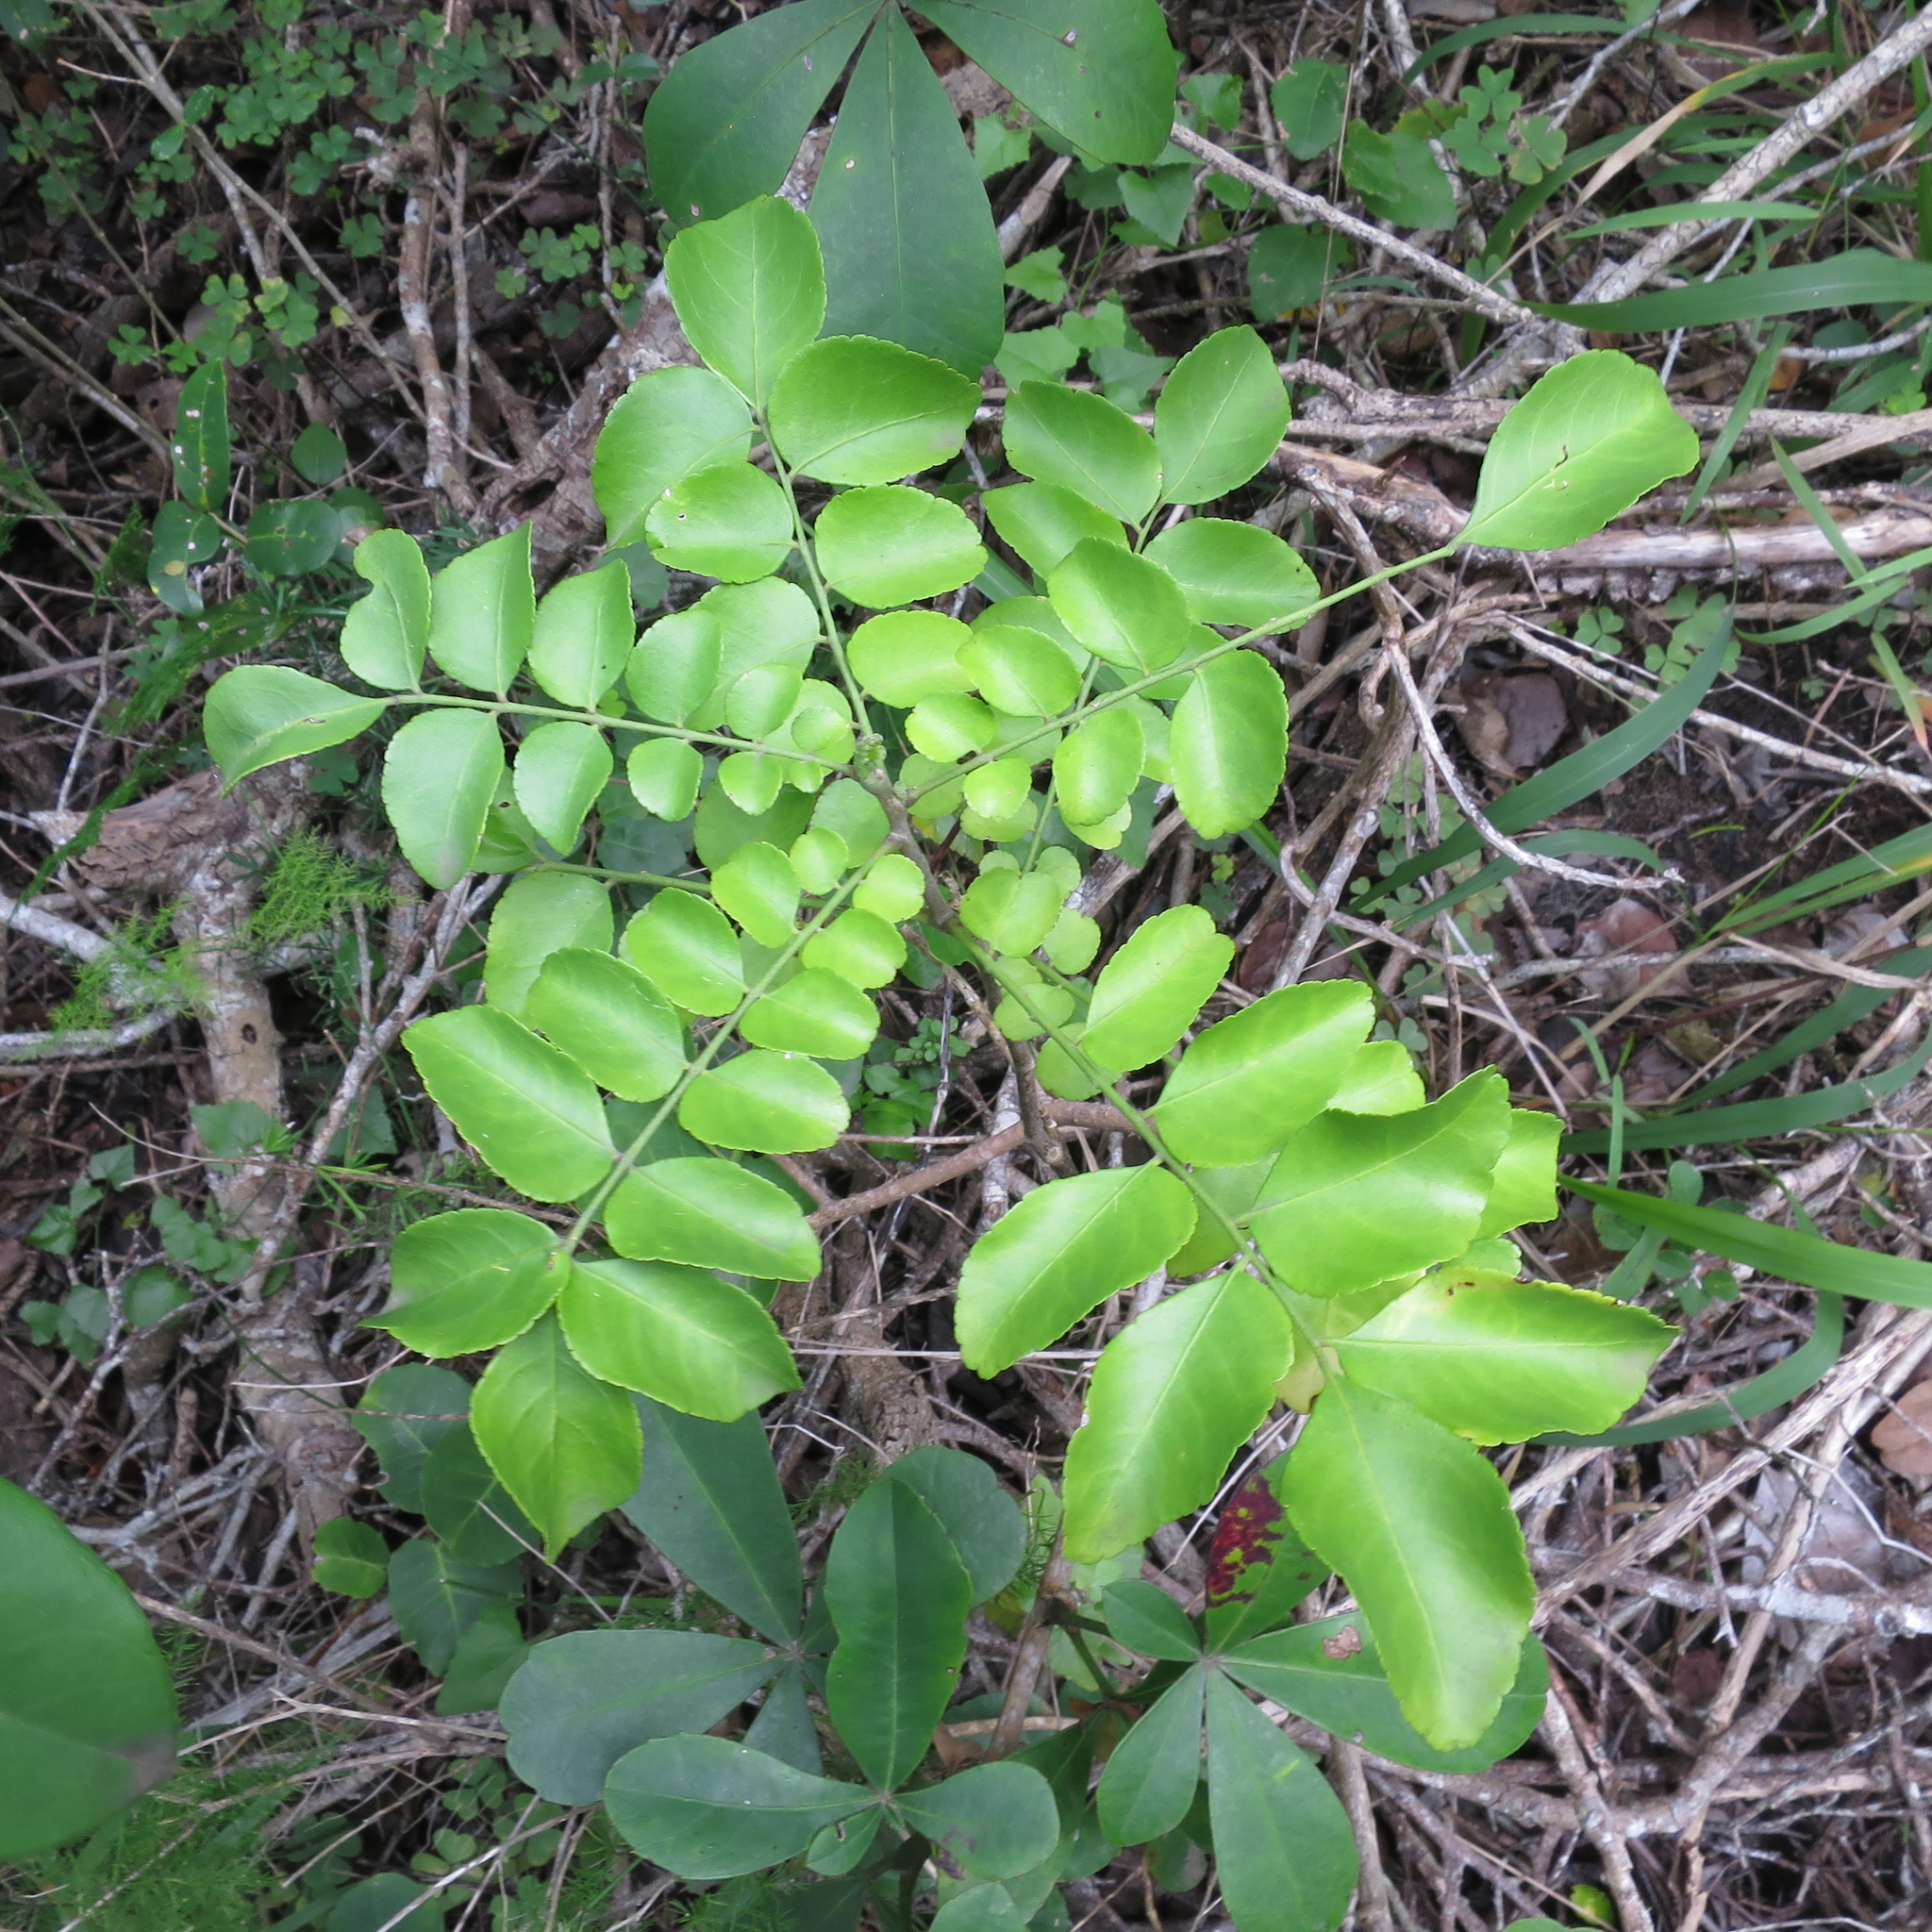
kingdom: Plantae
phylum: Tracheophyta
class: Magnoliopsida
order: Sapindales
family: Rutaceae
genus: Zanthoxylum
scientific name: Zanthoxylum capense
